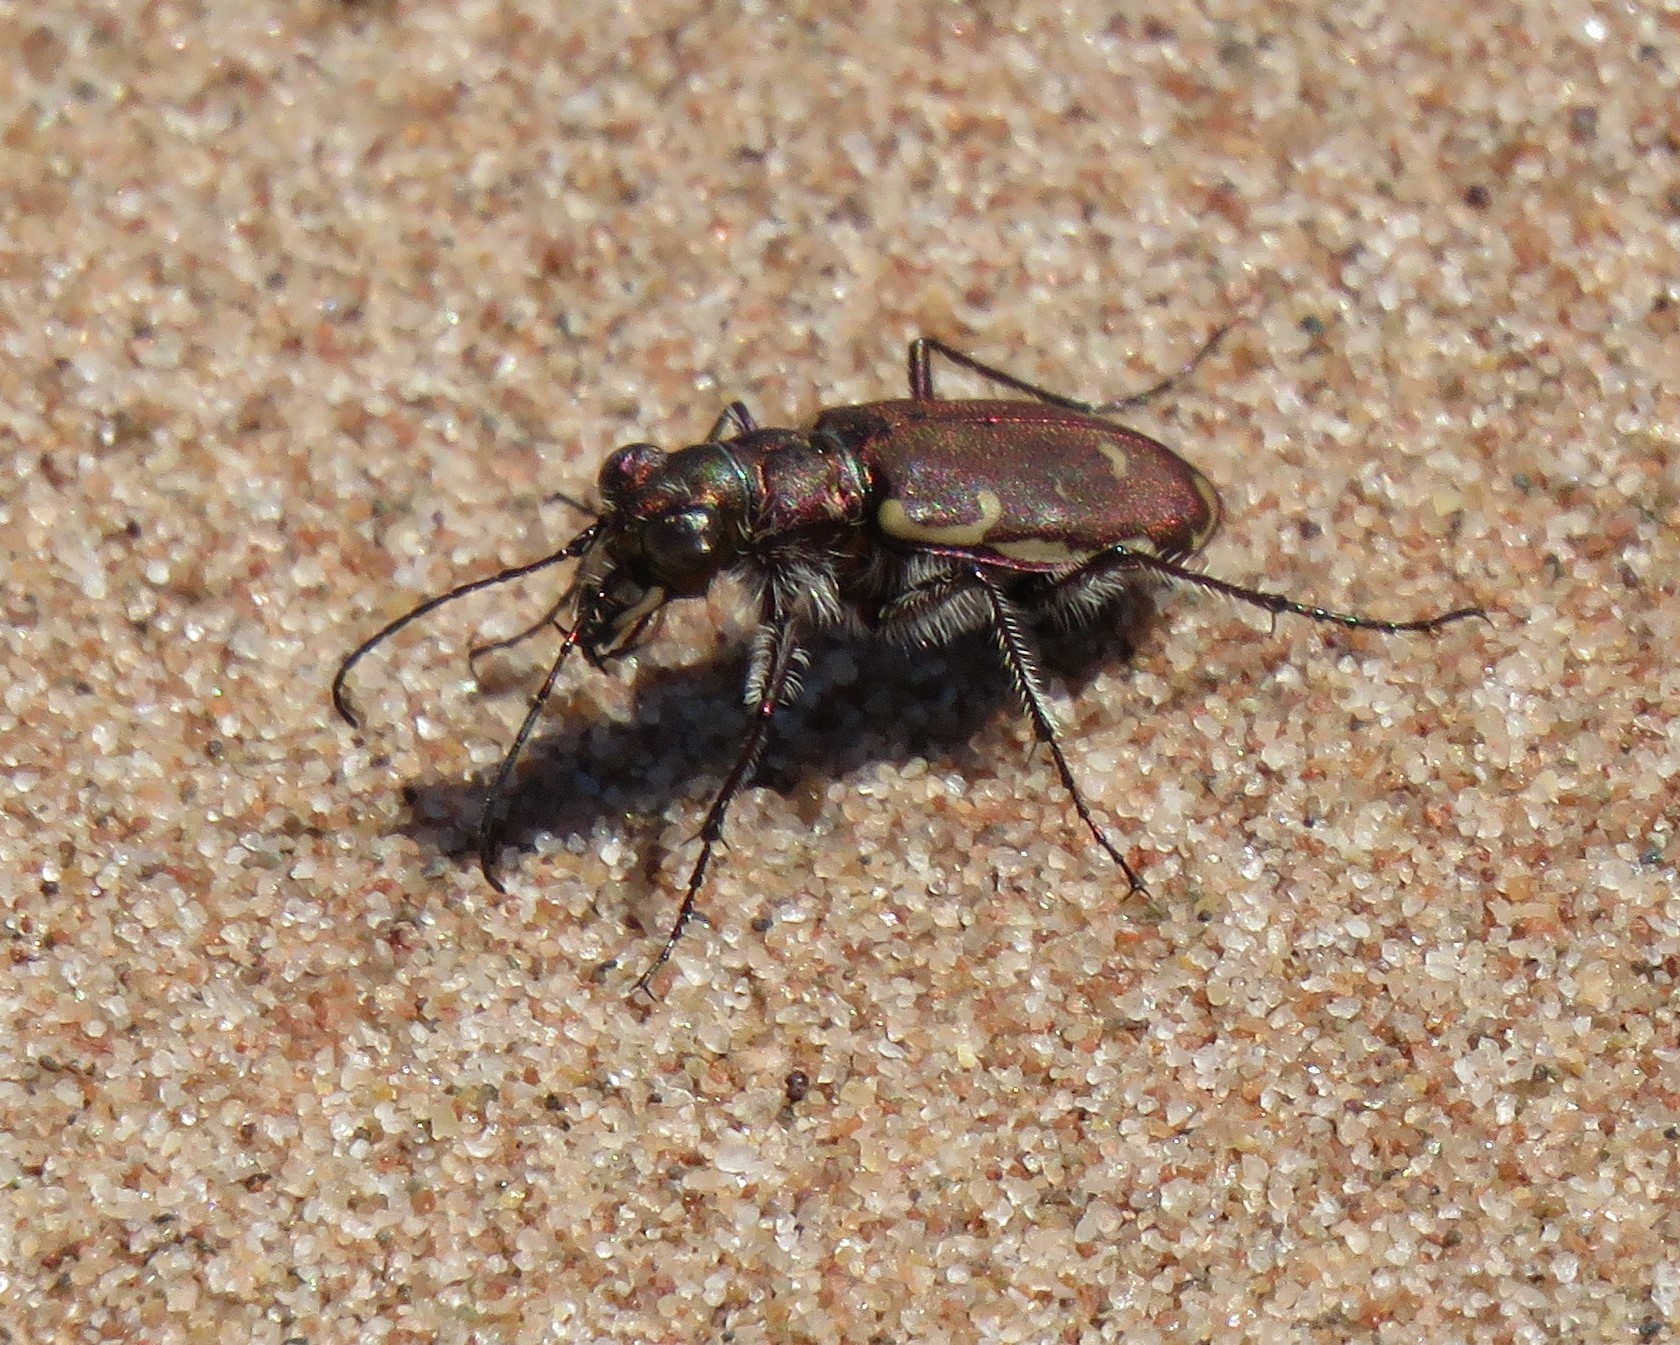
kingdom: Animalia
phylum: Arthropoda
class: Insecta
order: Coleoptera
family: Carabidae
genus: Cicindela
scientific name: Cicindela repanda
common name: Bronzed tiger beetle
